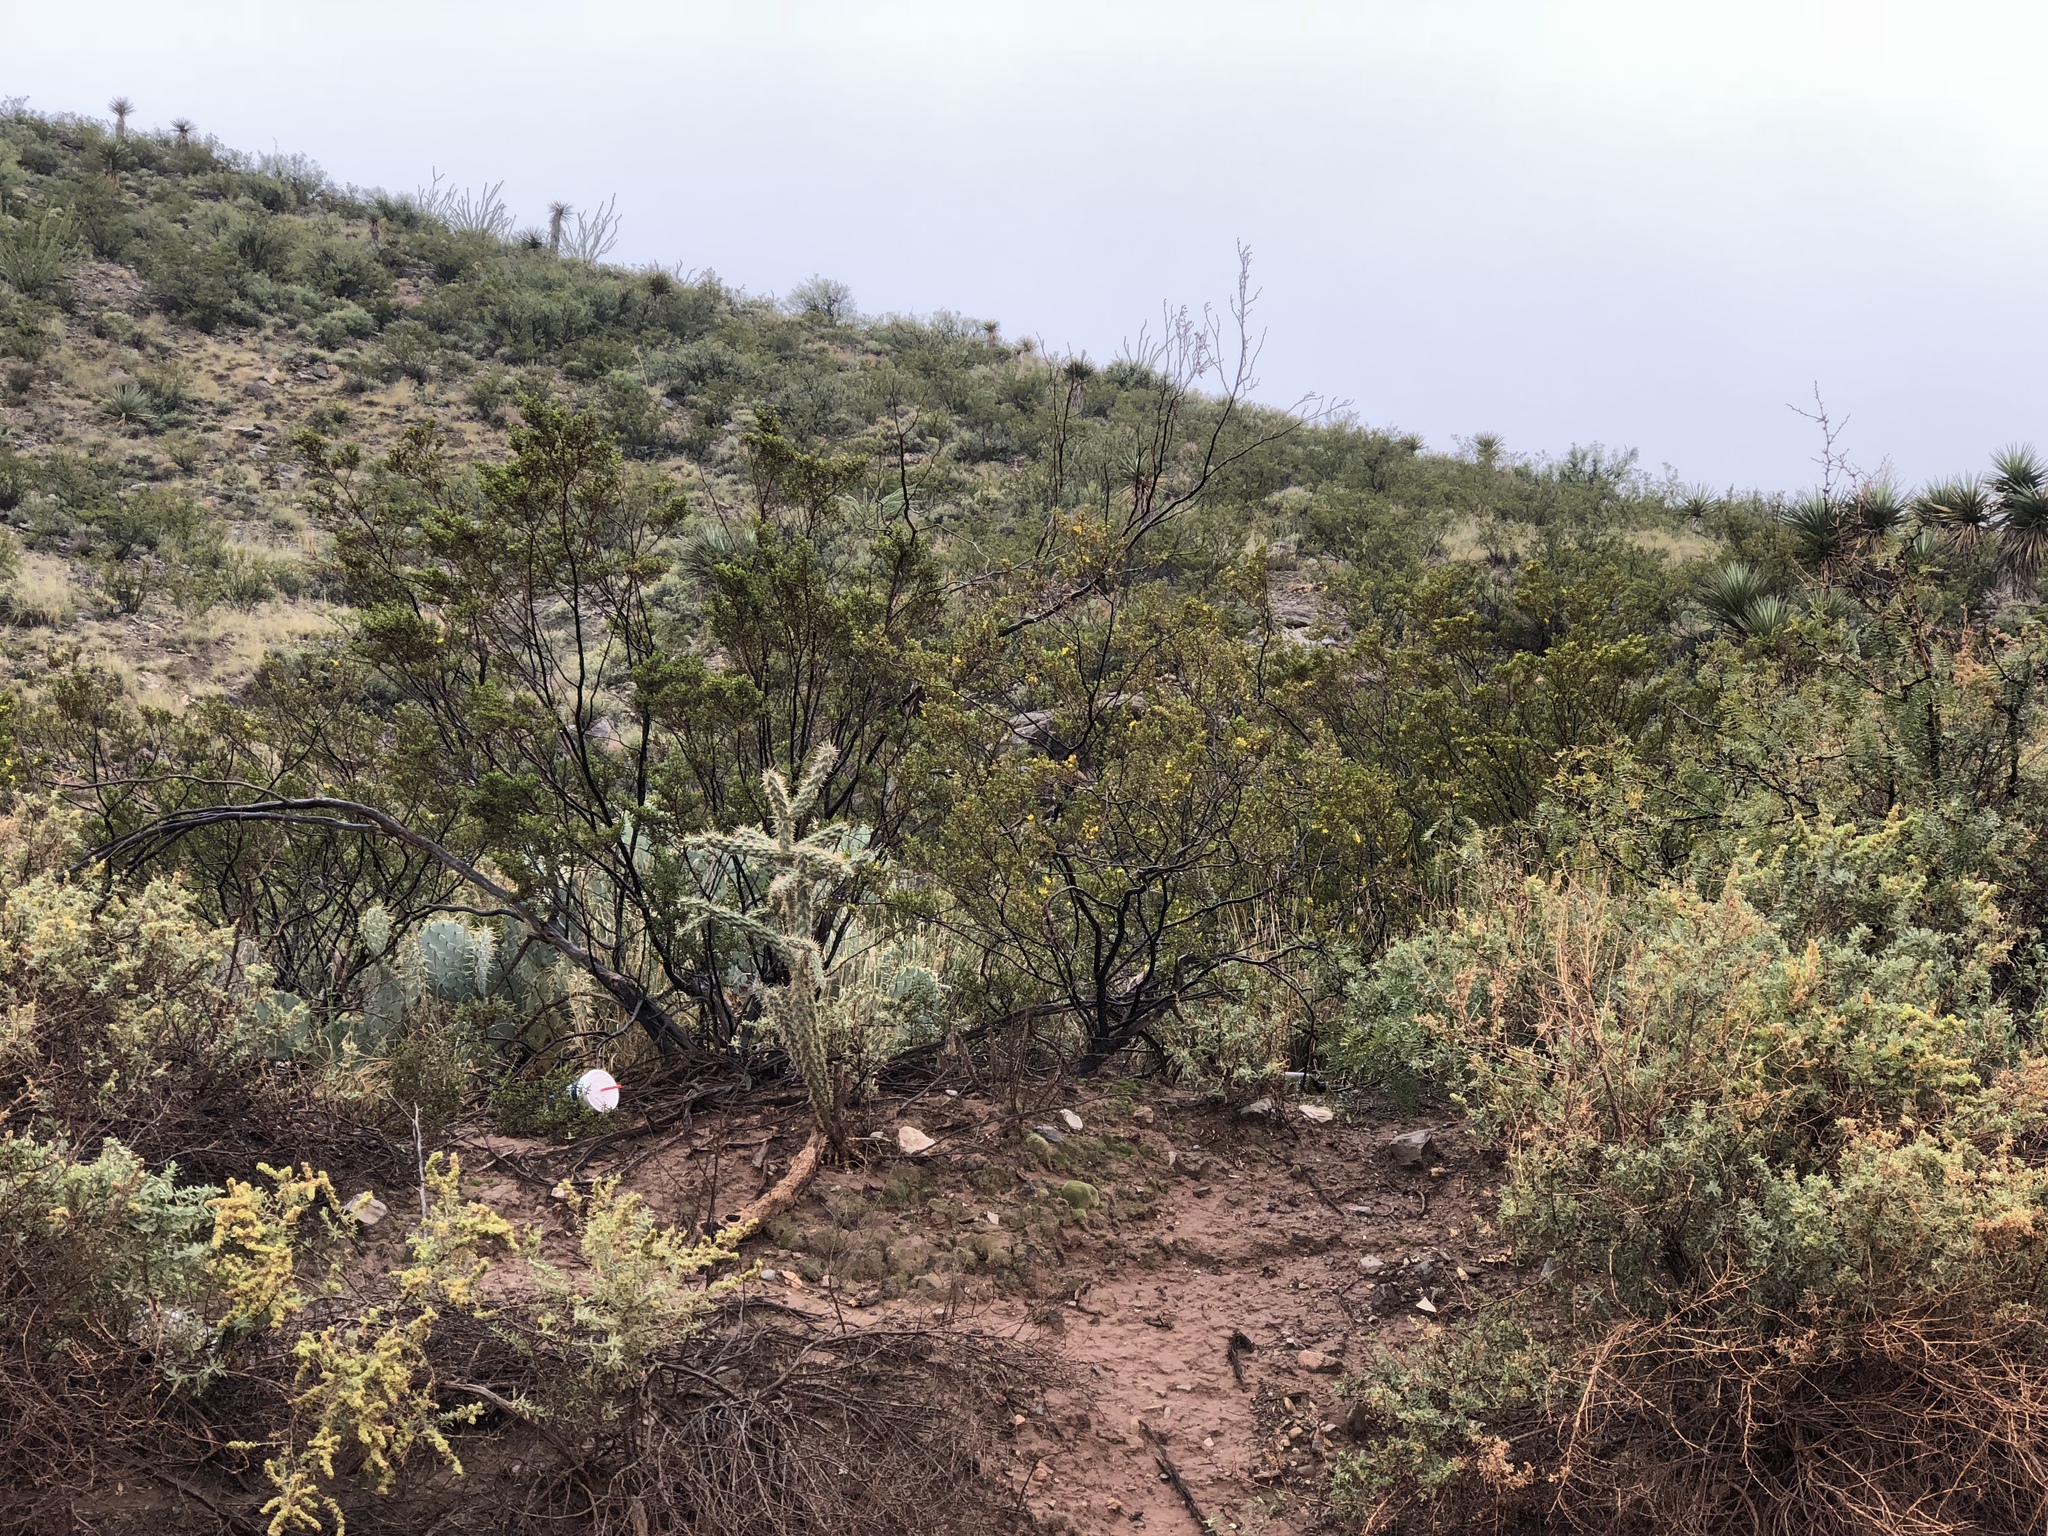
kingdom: Plantae
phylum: Tracheophyta
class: Magnoliopsida
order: Zygophyllales
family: Zygophyllaceae
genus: Larrea
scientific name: Larrea tridentata
